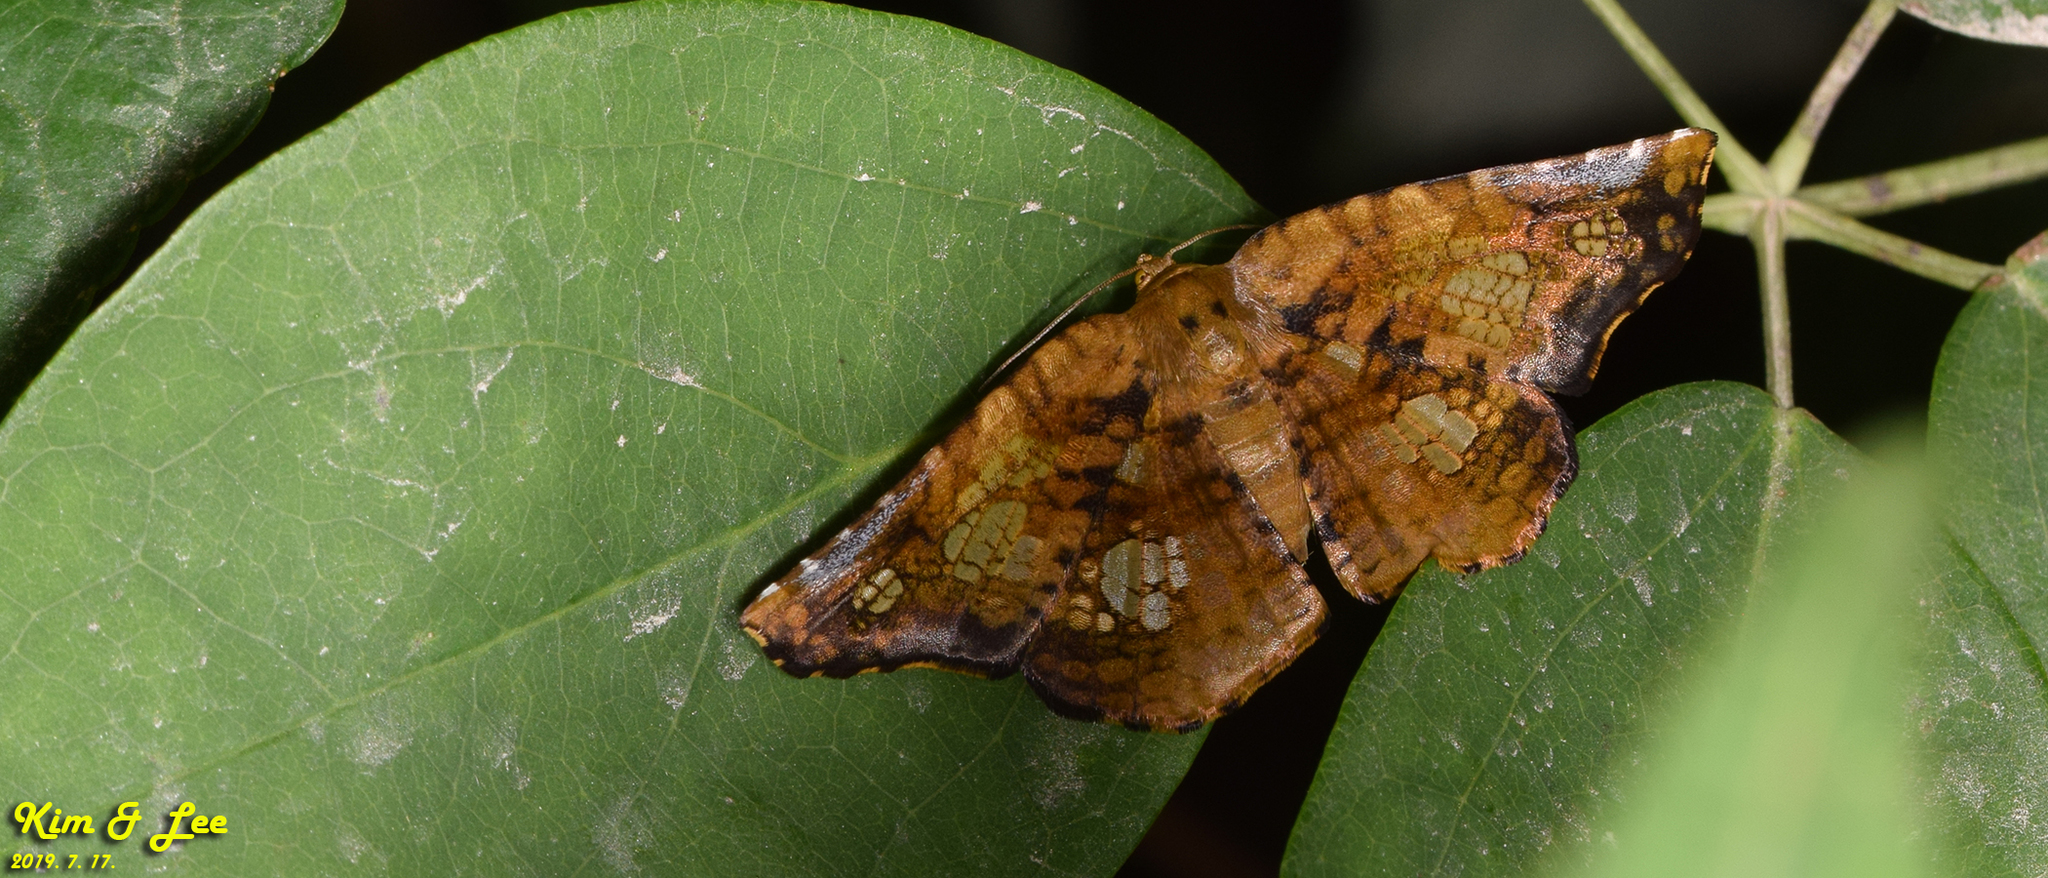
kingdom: Animalia
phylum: Arthropoda
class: Insecta
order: Lepidoptera
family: Thyrididae
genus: Sericophara
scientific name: Sericophara guttata
